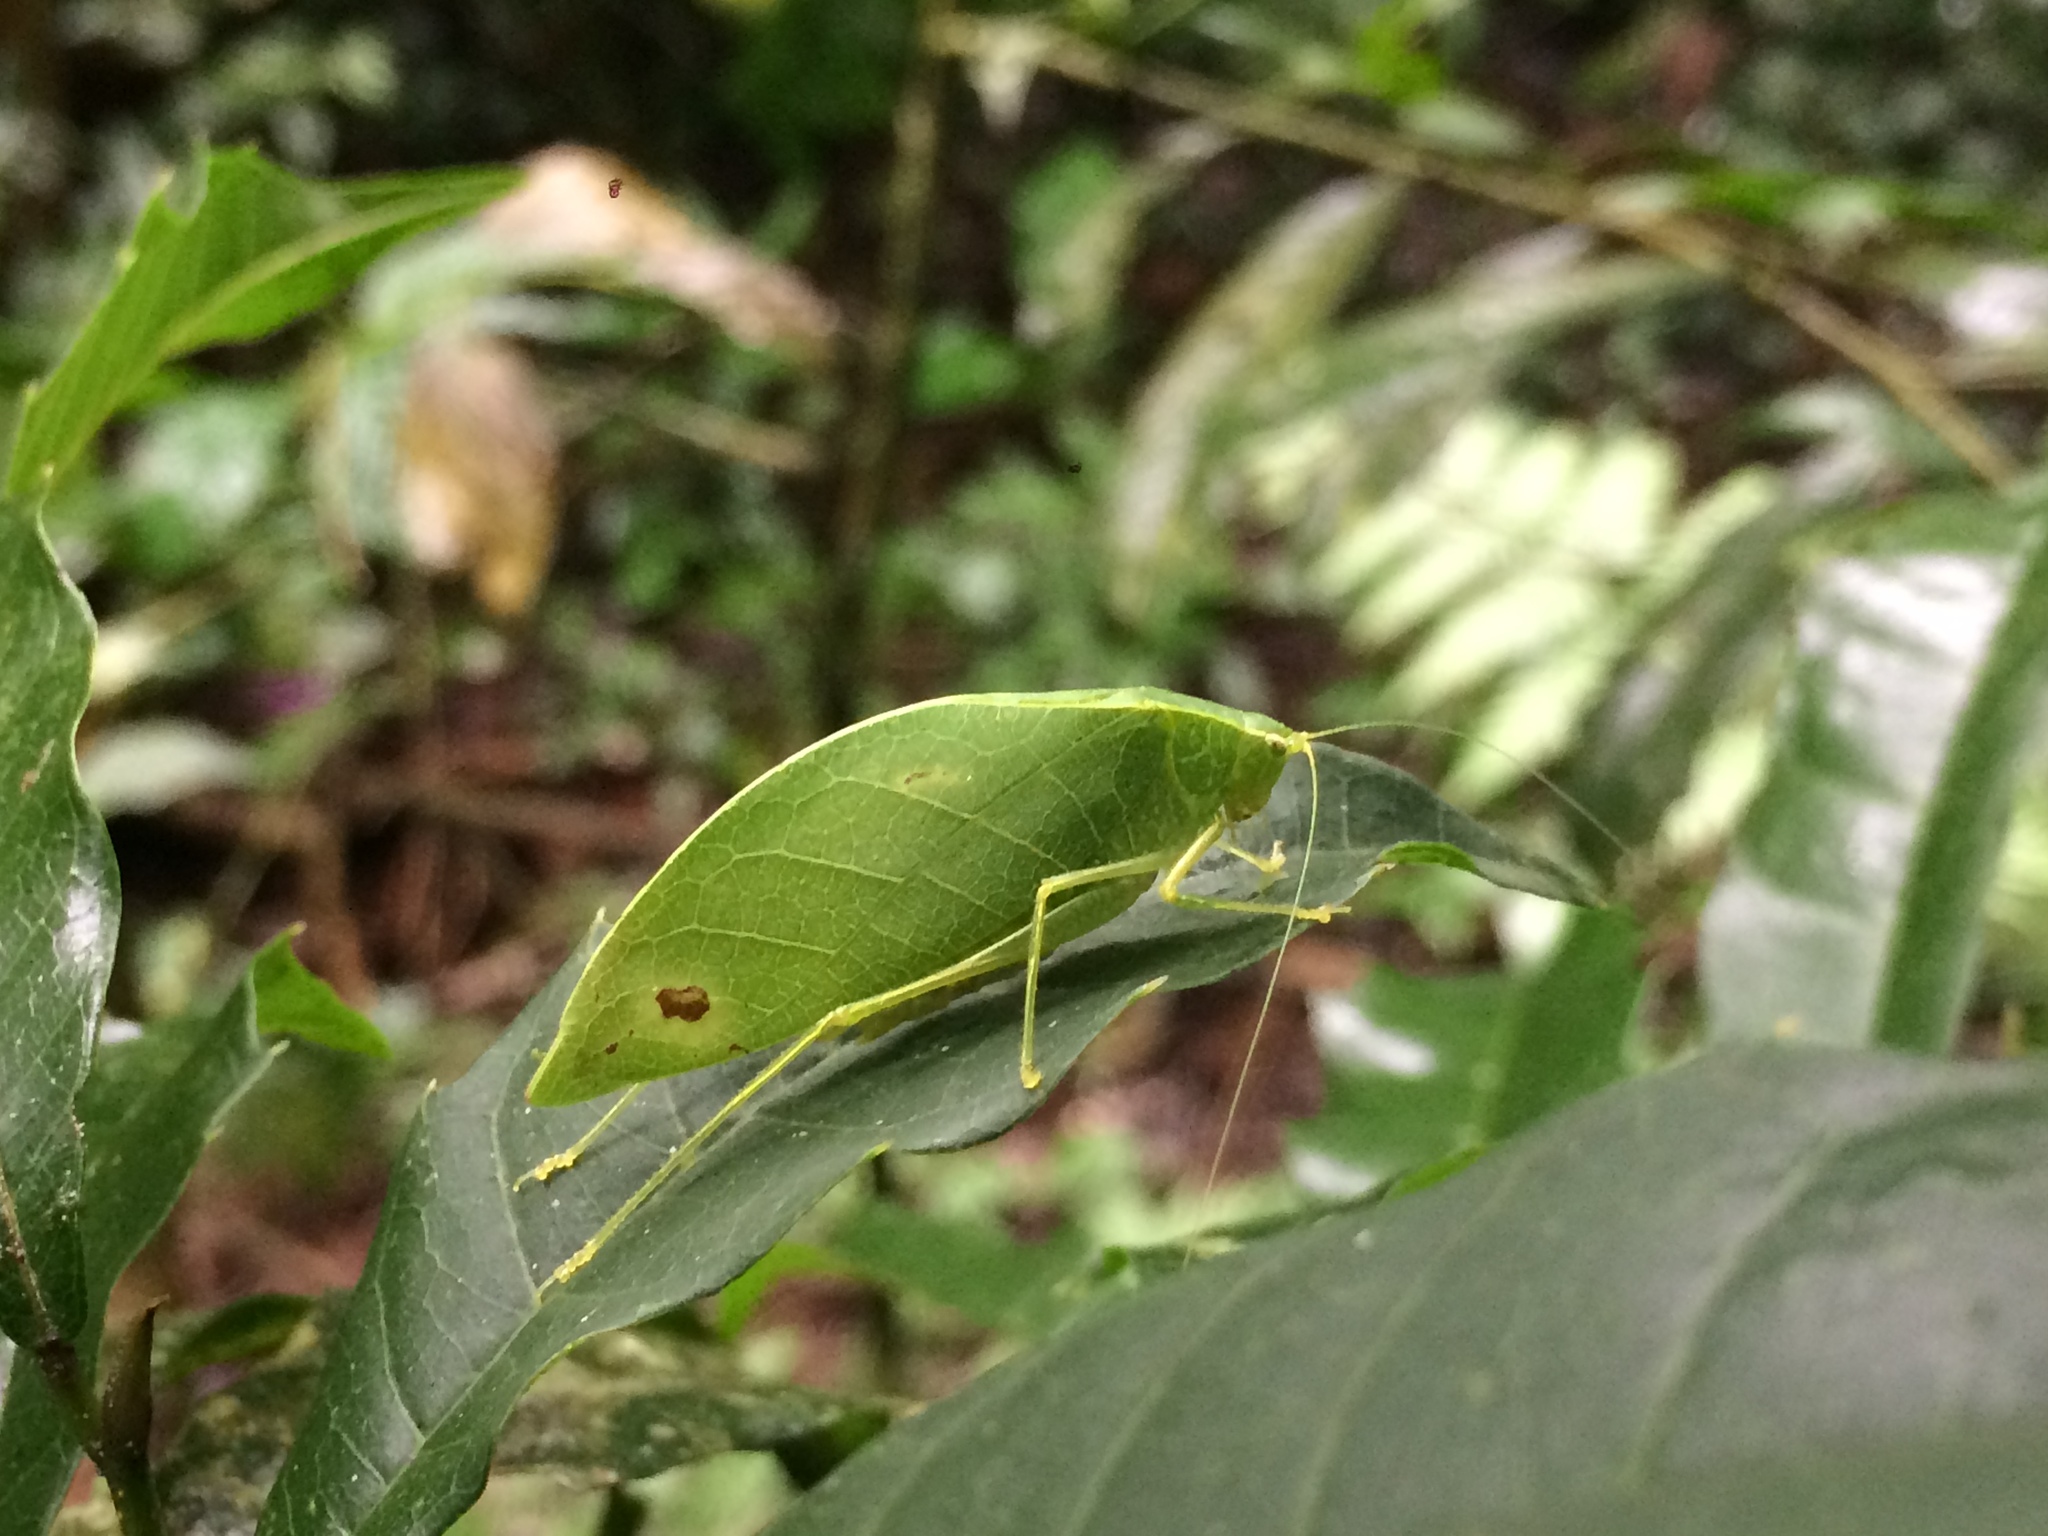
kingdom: Animalia
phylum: Arthropoda
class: Insecta
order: Orthoptera
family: Tettigoniidae
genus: Viadana
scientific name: Viadana piracicabae
